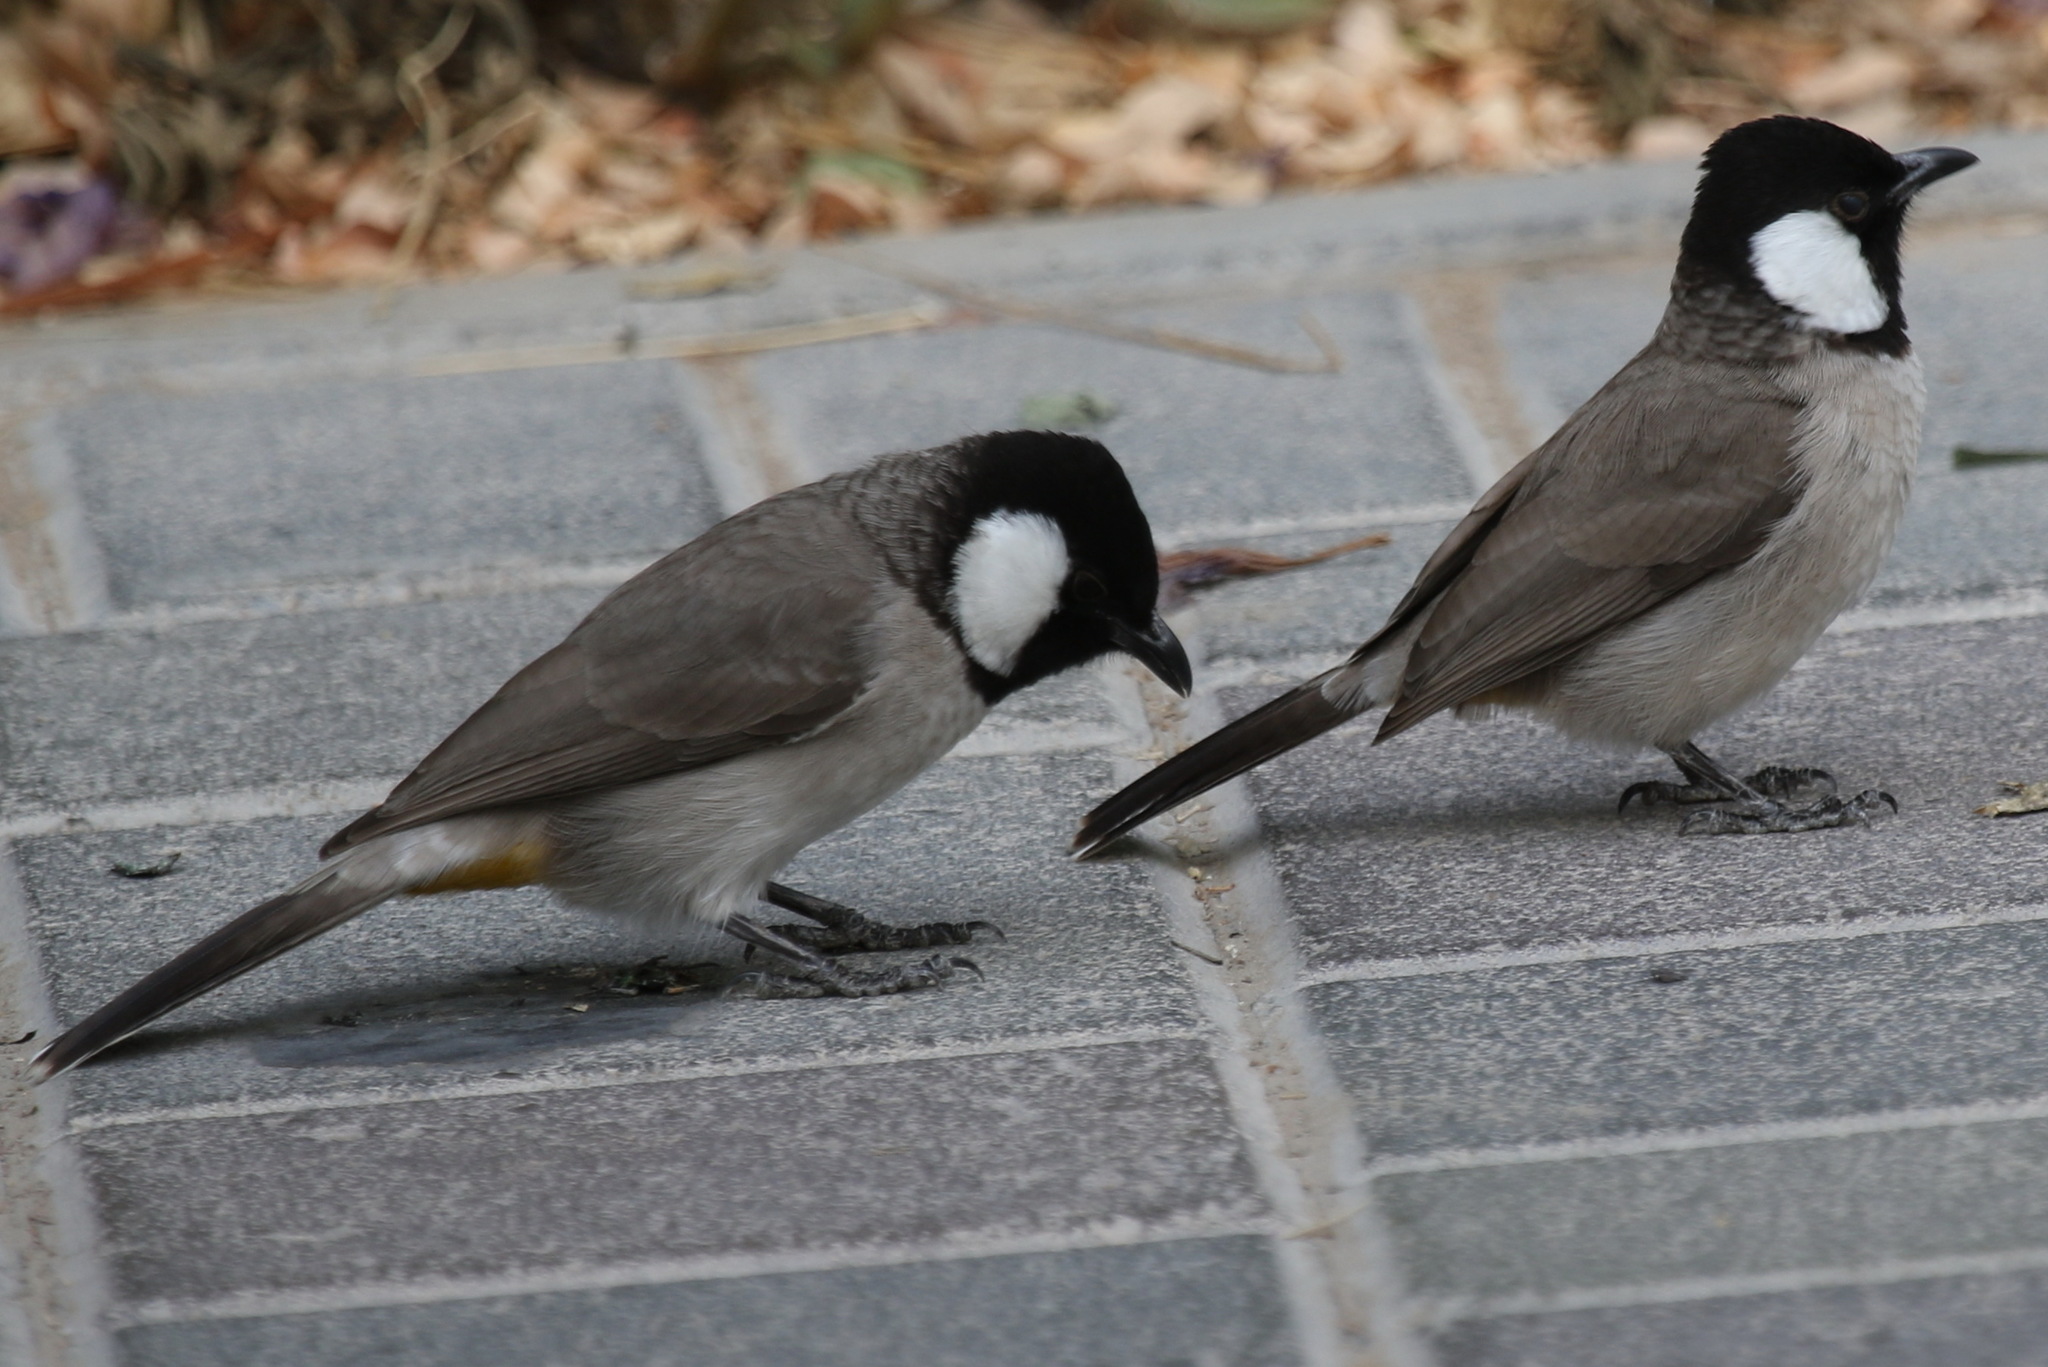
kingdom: Animalia
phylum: Chordata
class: Aves
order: Passeriformes
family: Pycnonotidae
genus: Pycnonotus
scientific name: Pycnonotus leucotis
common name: White-eared bulbul
